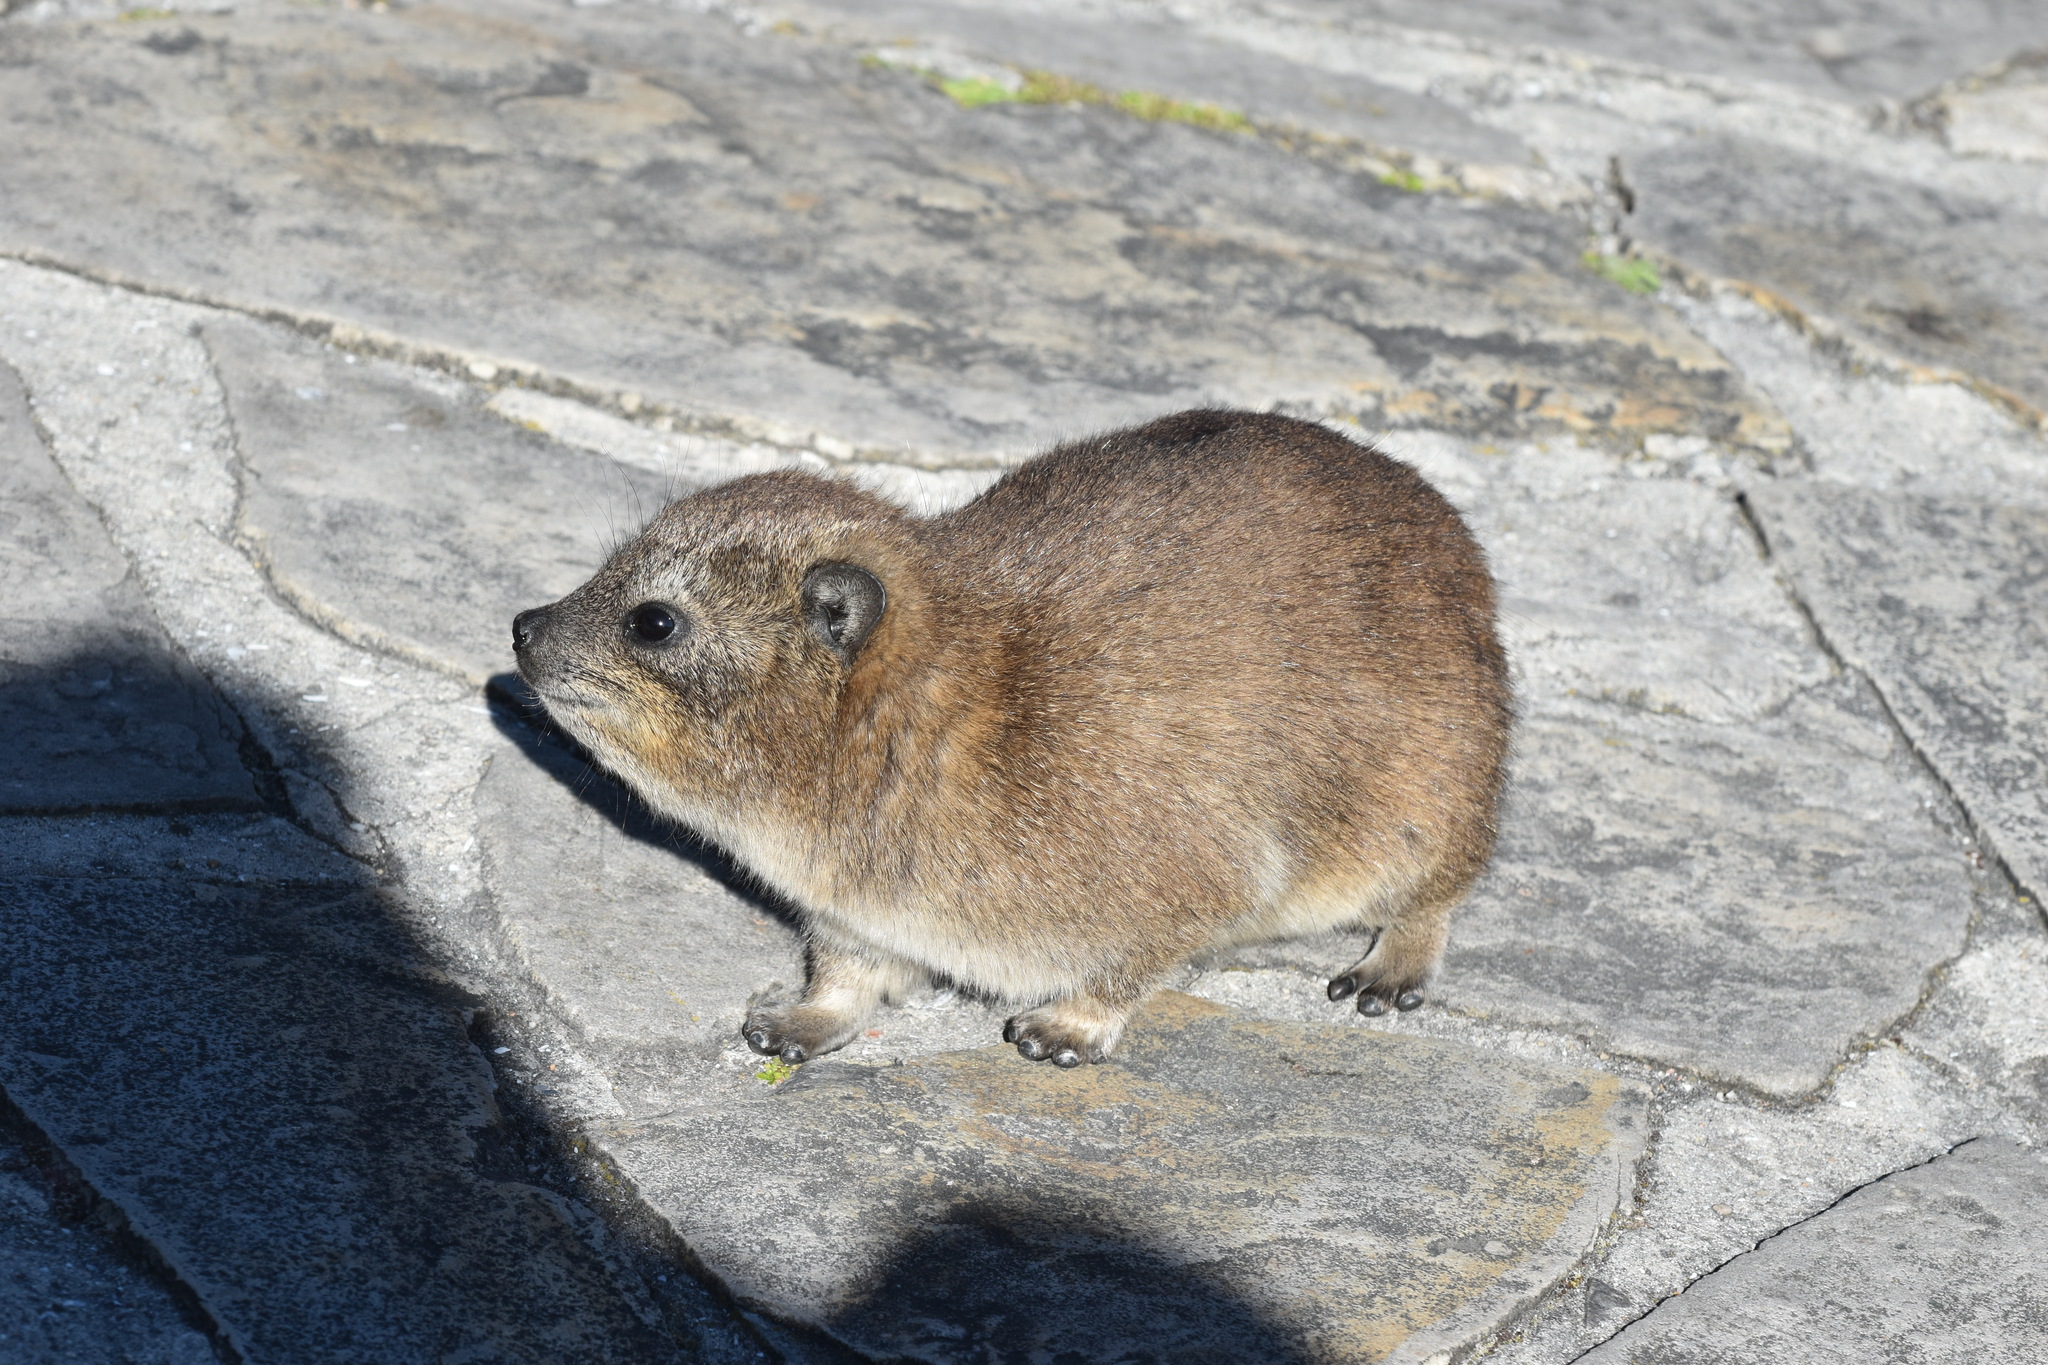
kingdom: Animalia
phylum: Chordata
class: Mammalia
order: Hyracoidea
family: Procaviidae
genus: Procavia
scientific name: Procavia capensis
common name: Rock hyrax
